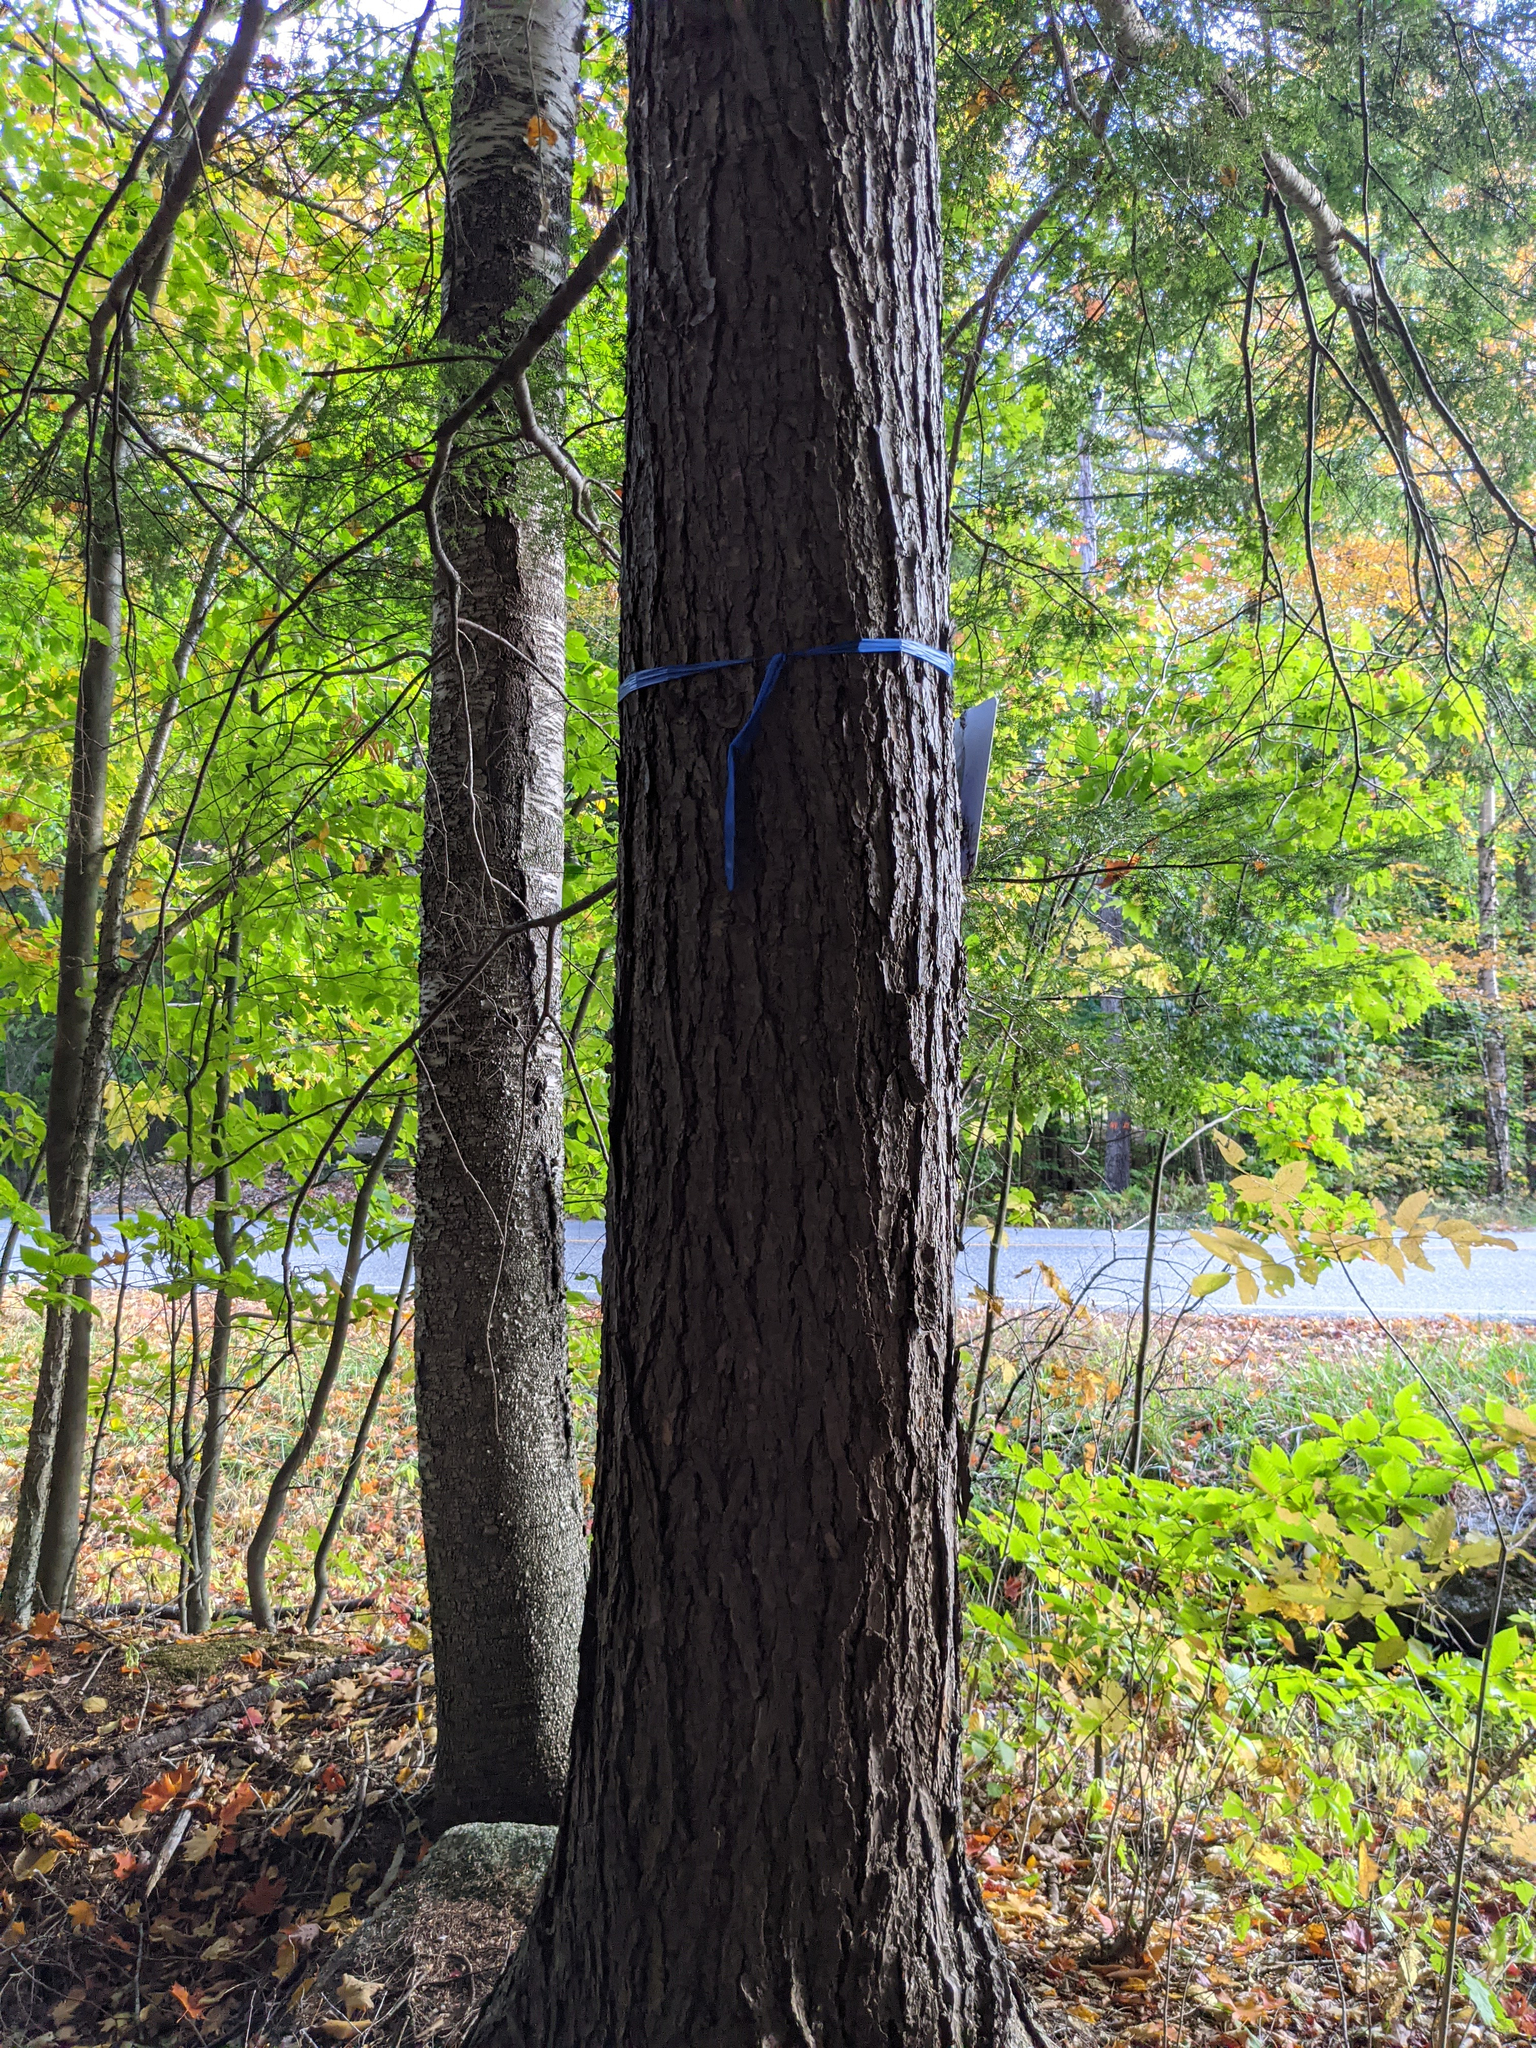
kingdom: Plantae
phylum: Tracheophyta
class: Pinopsida
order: Pinales
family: Pinaceae
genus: Tsuga
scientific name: Tsuga canadensis
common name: Eastern hemlock
